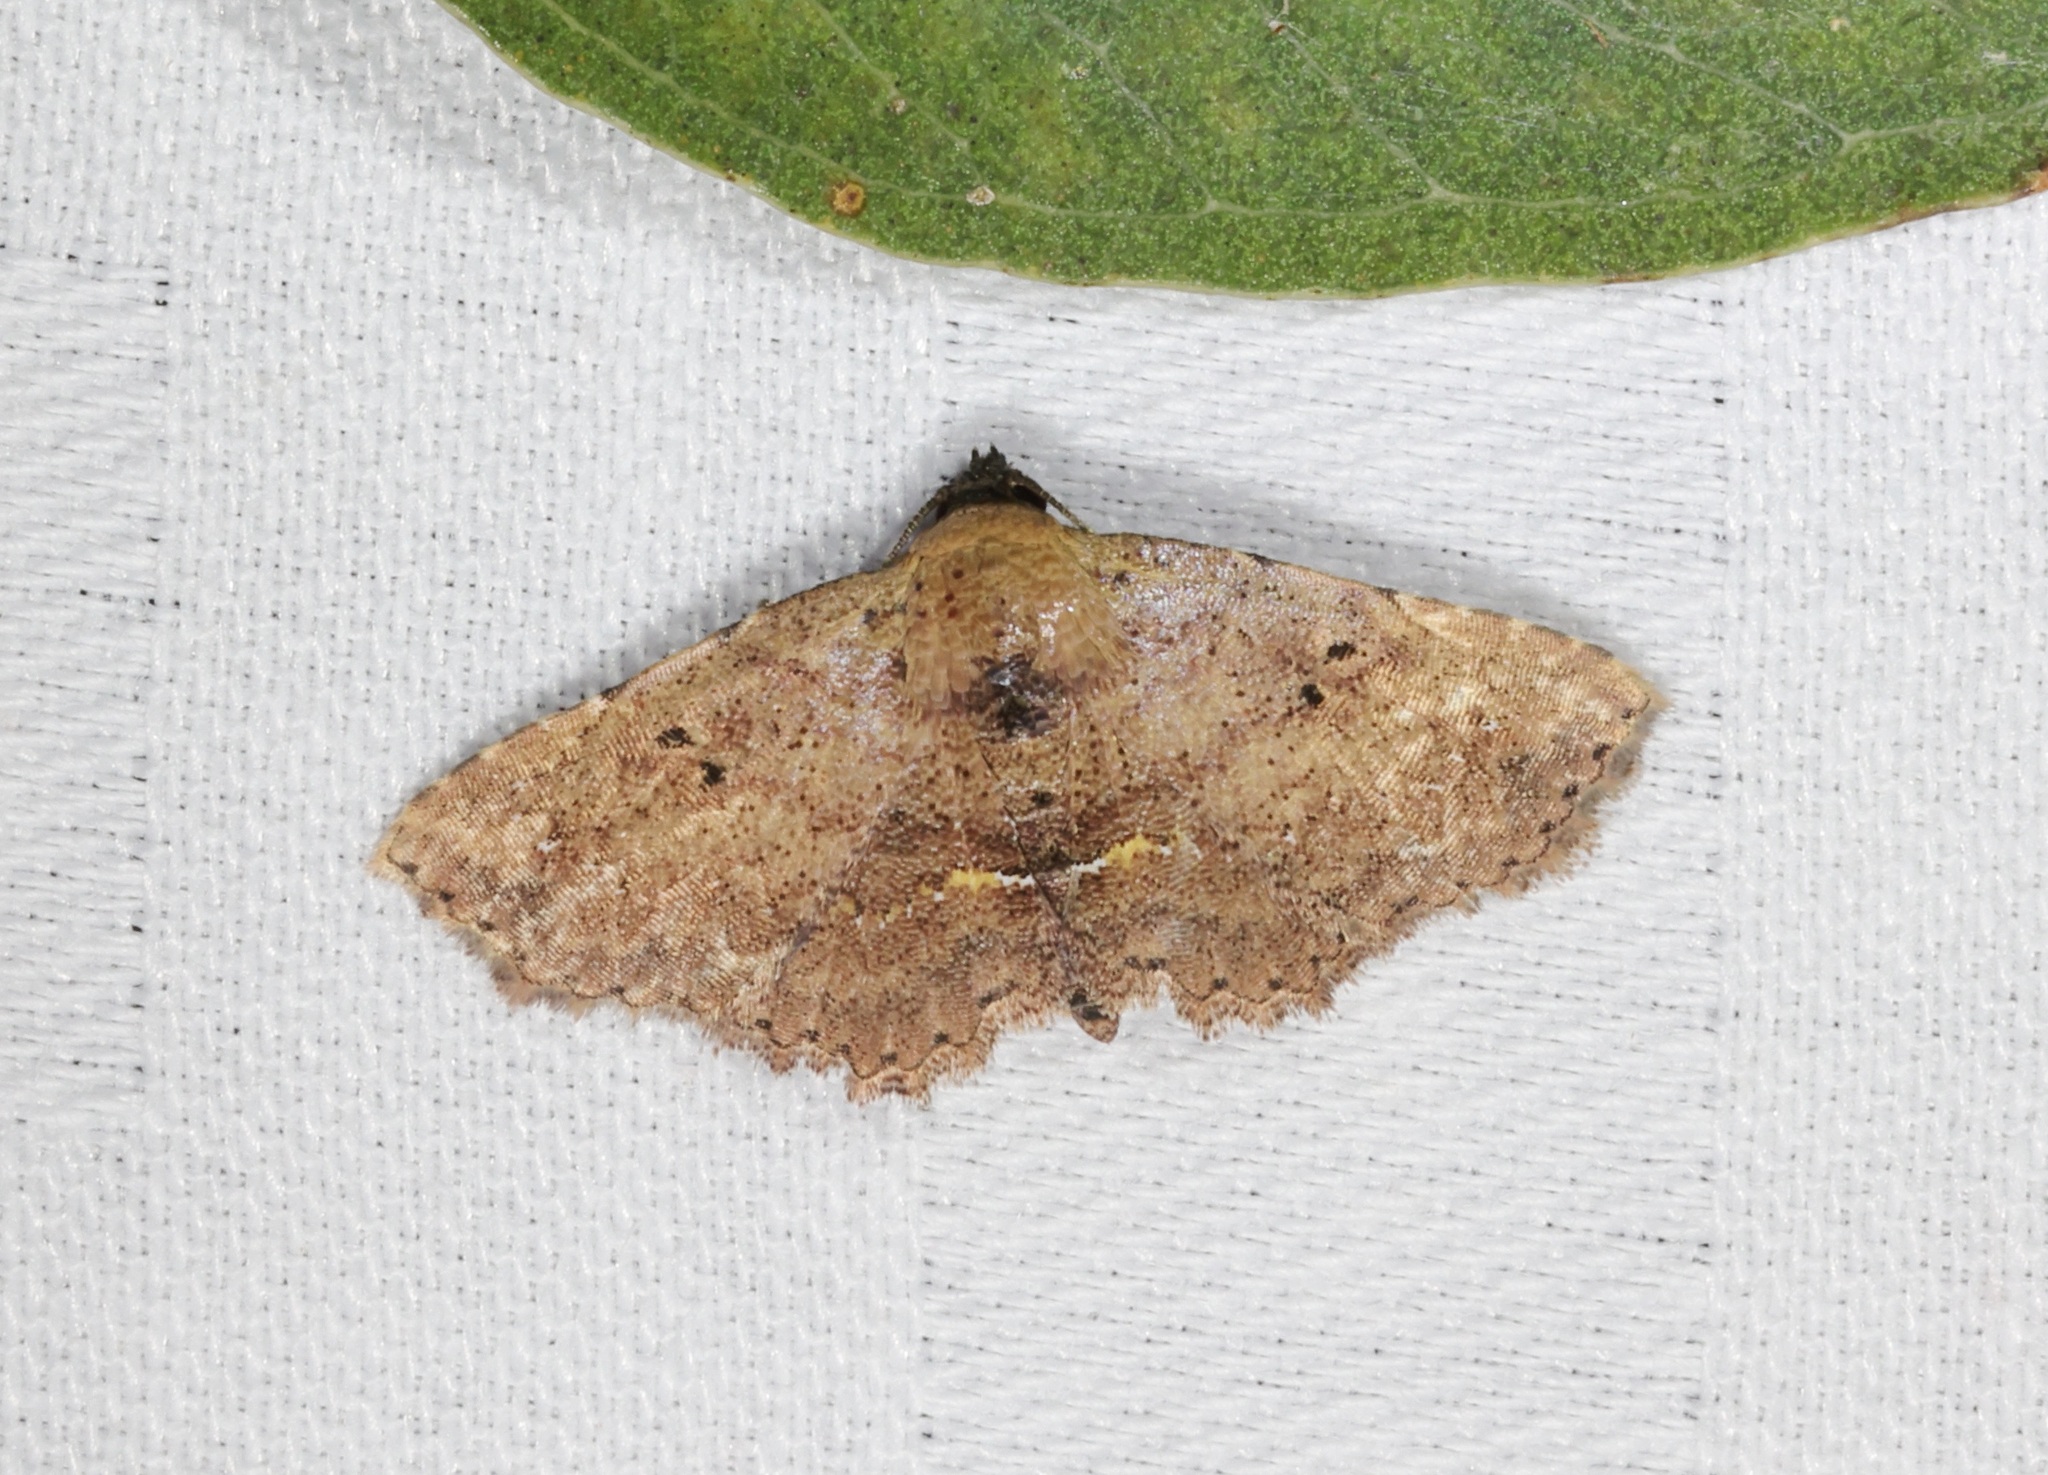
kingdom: Animalia
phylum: Arthropoda
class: Insecta
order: Lepidoptera
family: Noctuidae
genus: Cerynea
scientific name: Cerynea discontenta
